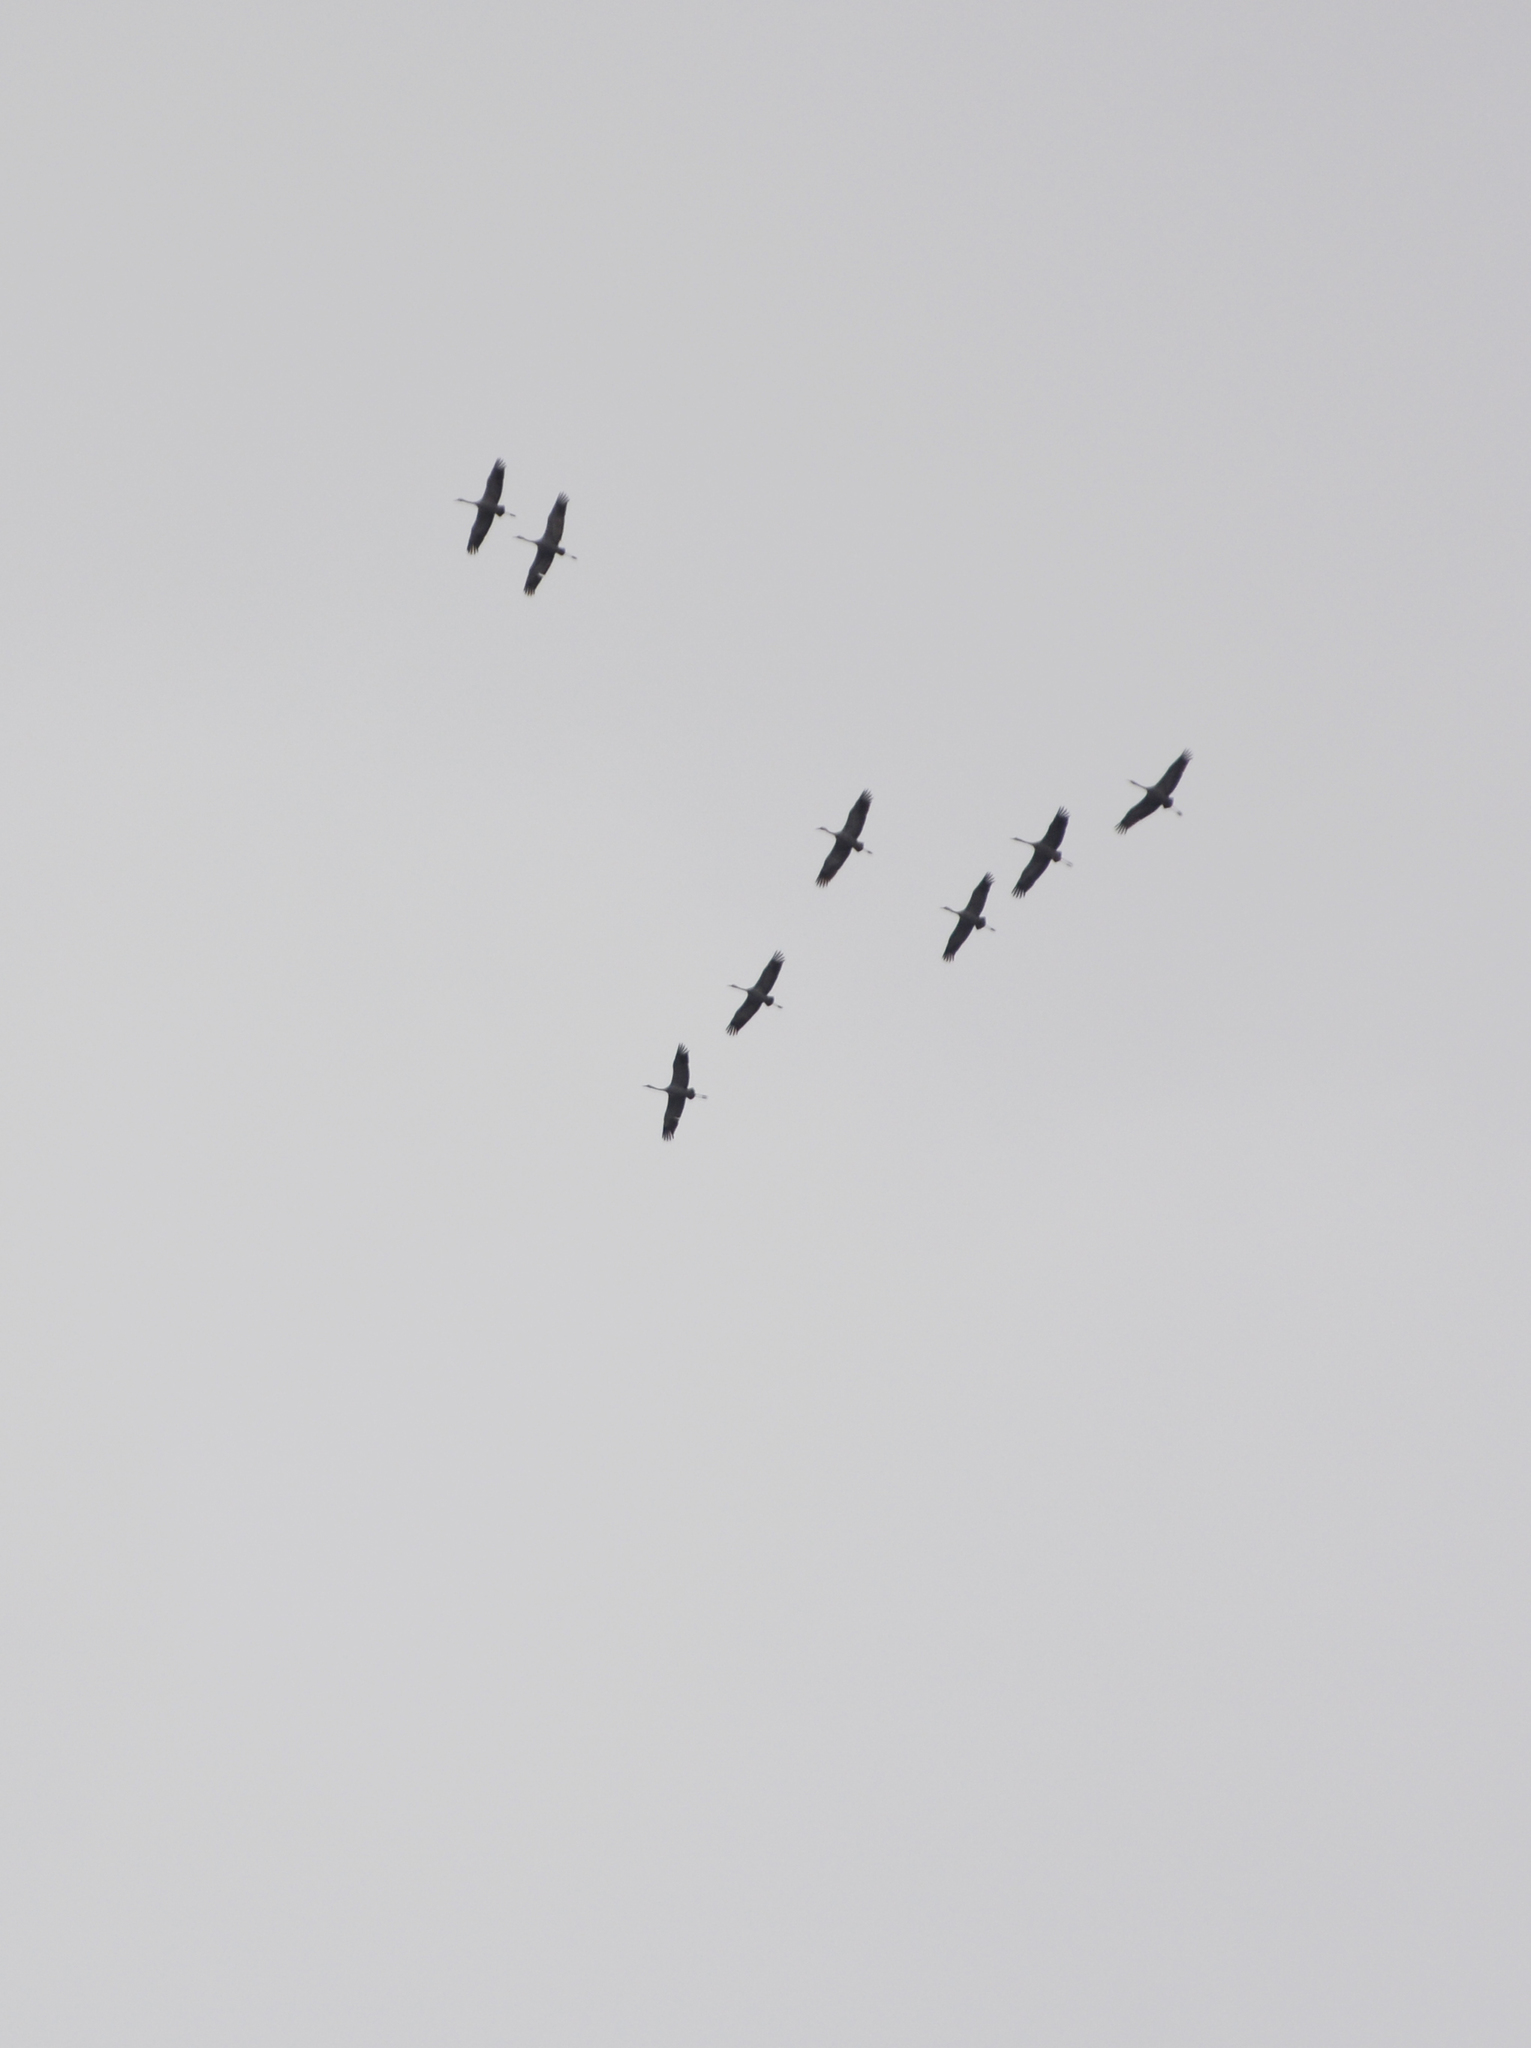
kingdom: Animalia
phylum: Chordata
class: Aves
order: Gruiformes
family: Gruidae
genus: Grus
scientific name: Grus grus
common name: Common crane
